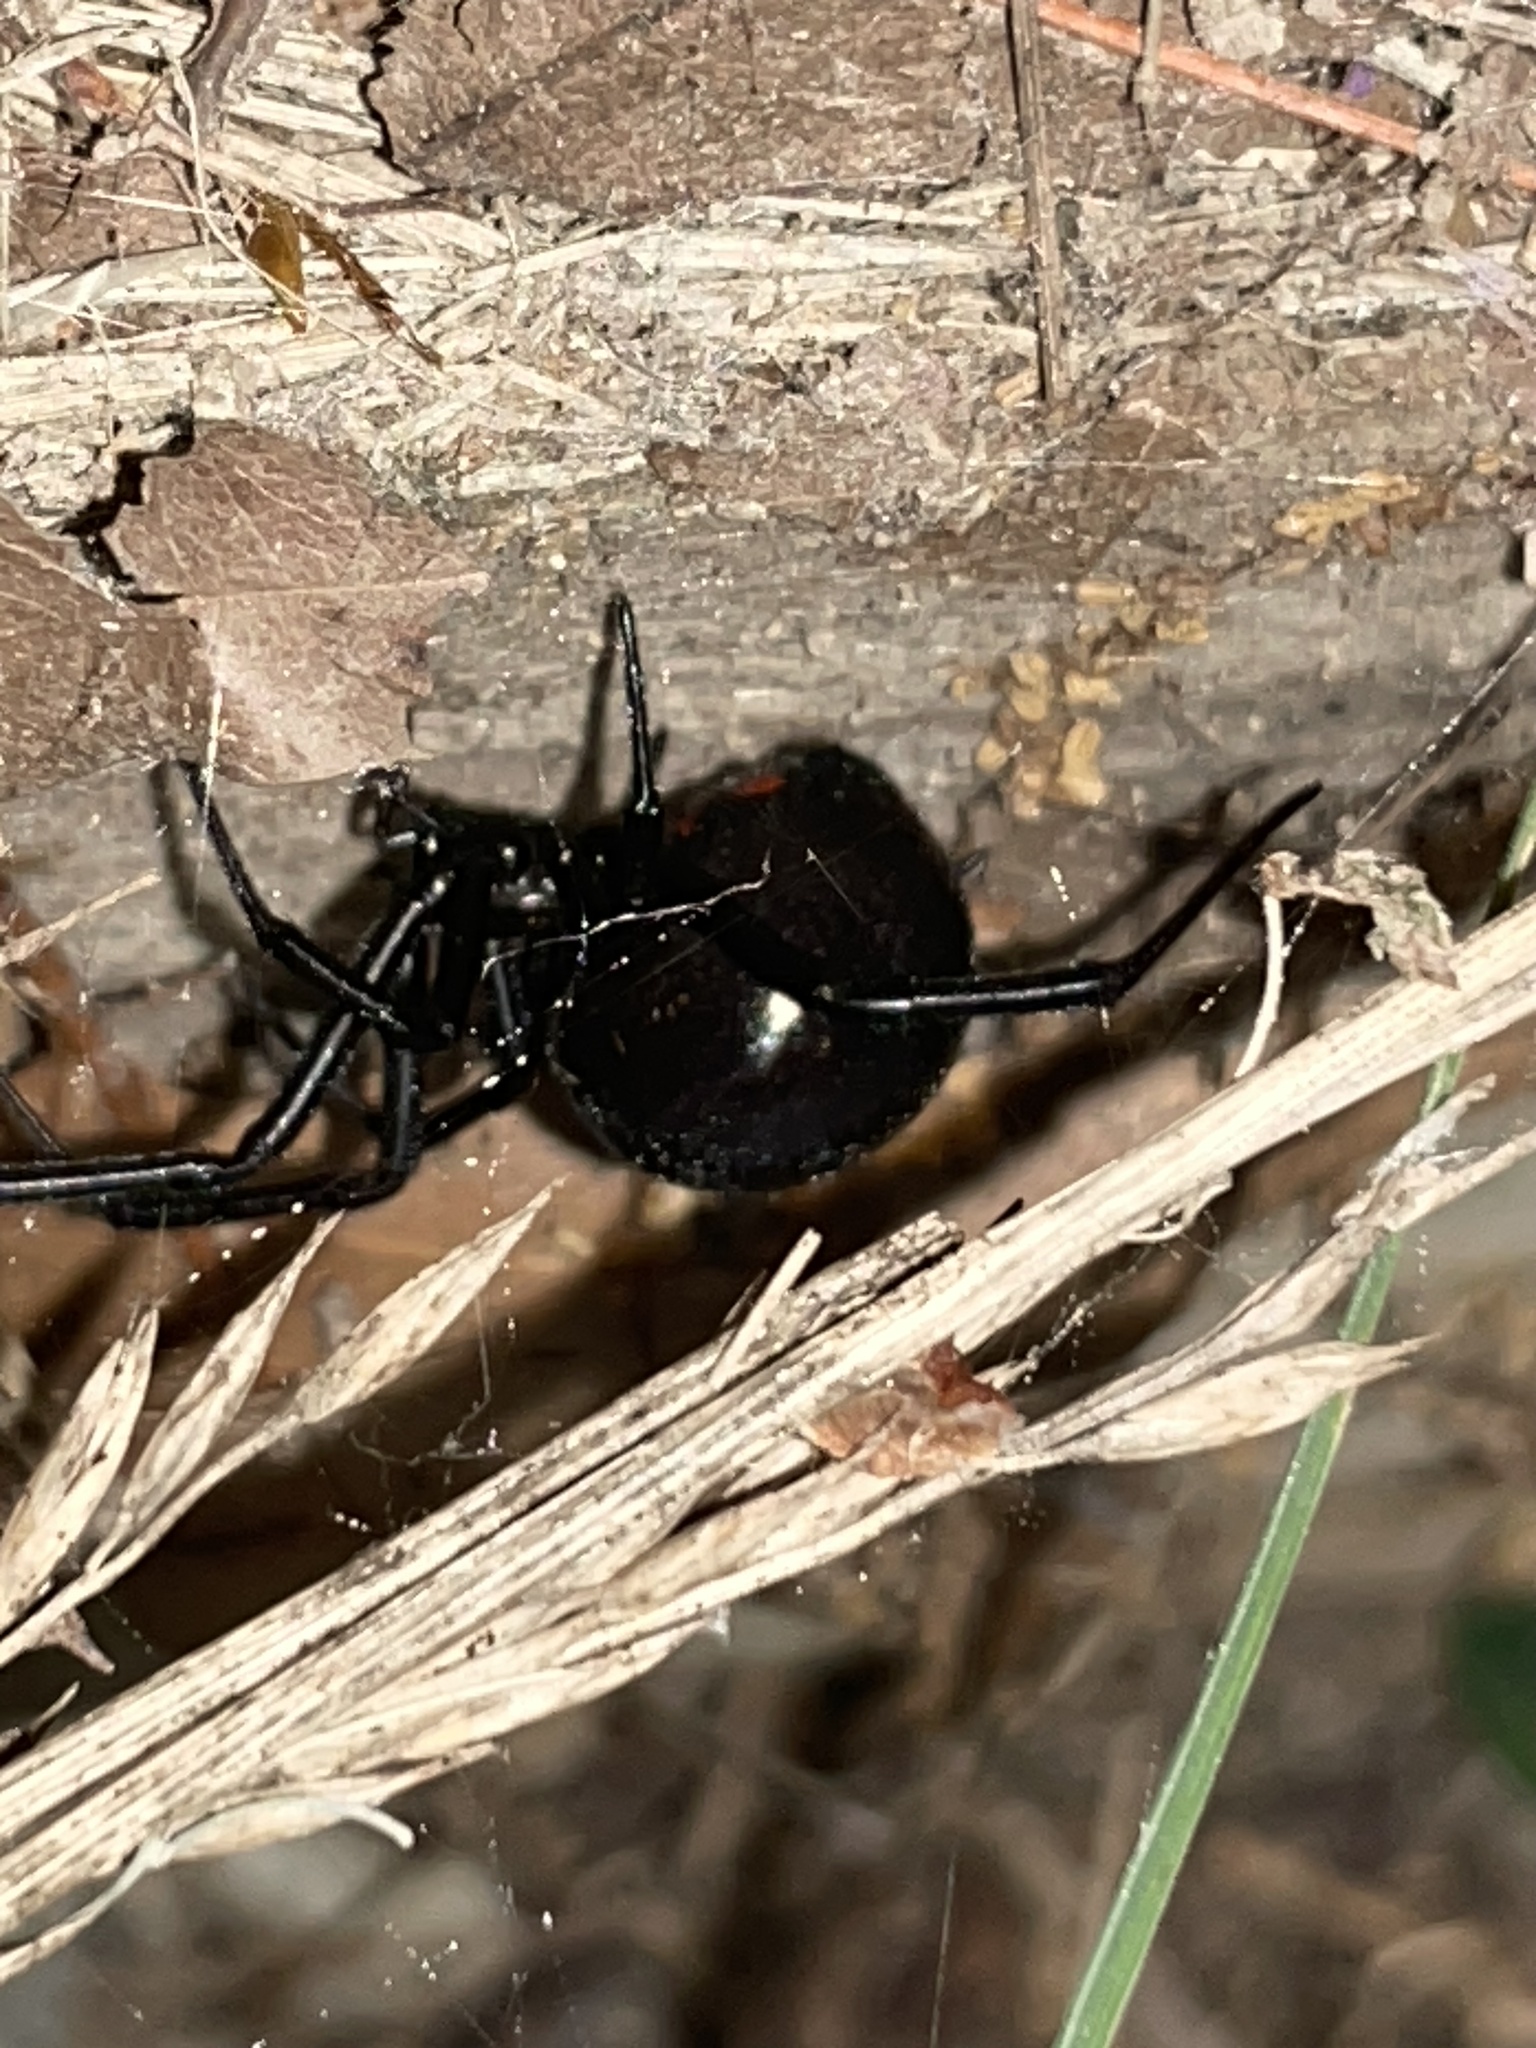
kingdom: Animalia
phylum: Arthropoda
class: Arachnida
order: Araneae
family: Theridiidae
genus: Latrodectus
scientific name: Latrodectus mactans
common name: Cobweb spiders
